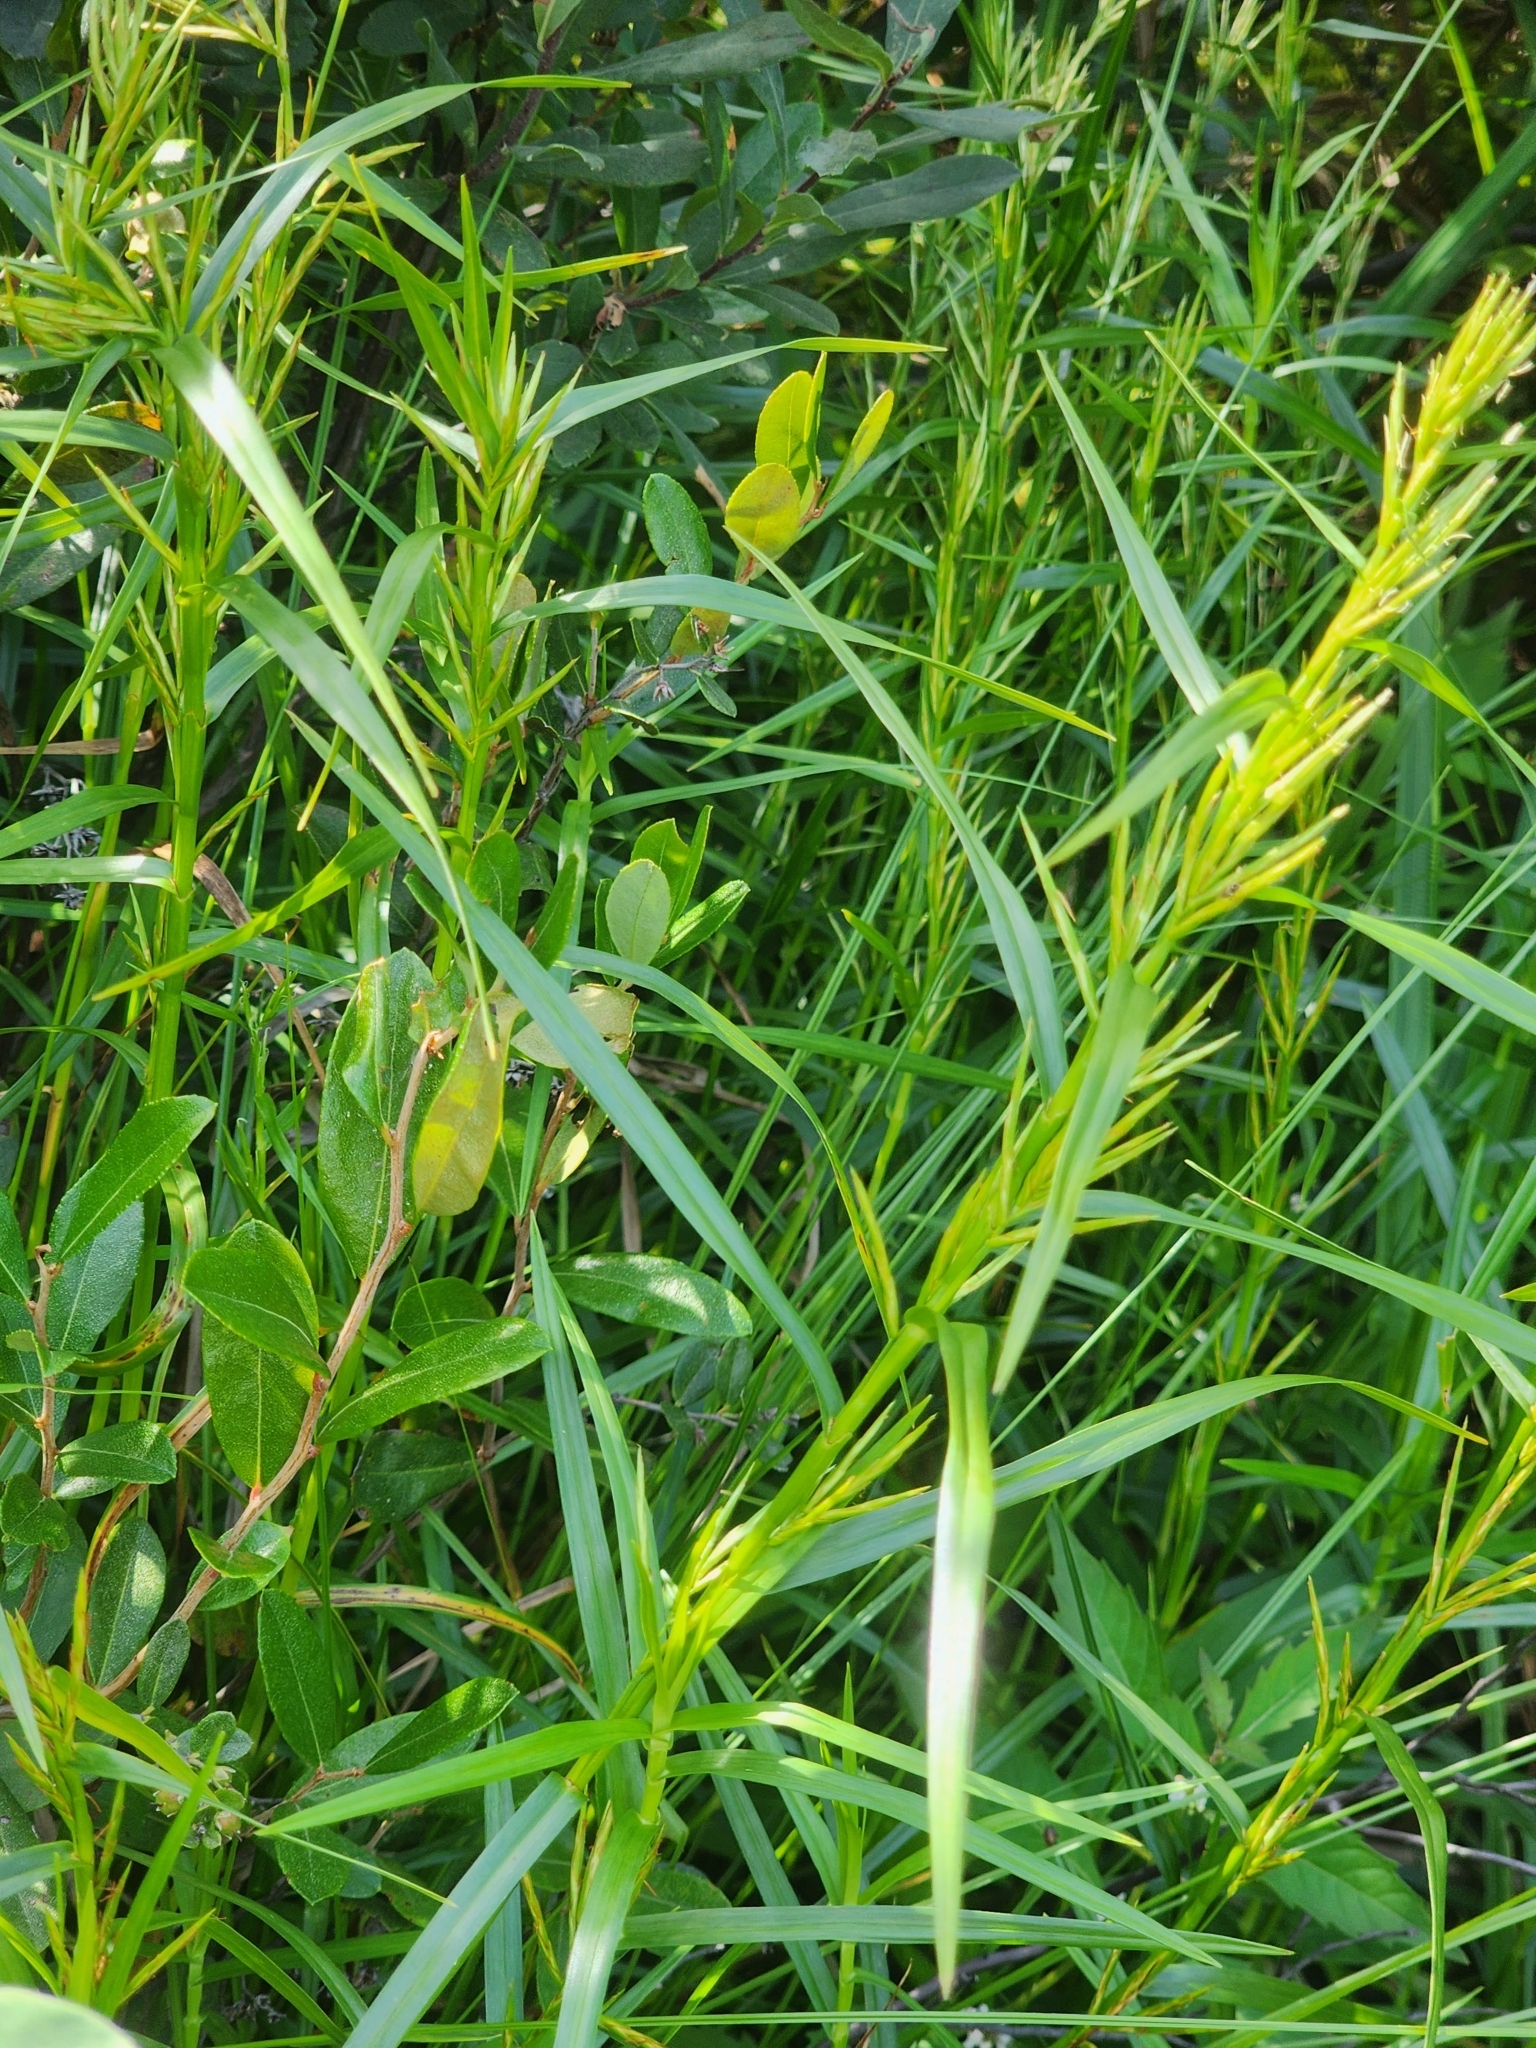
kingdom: Plantae
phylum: Tracheophyta
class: Liliopsida
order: Poales
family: Cyperaceae
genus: Dulichium
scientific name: Dulichium arundinaceum
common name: Three-way sedge
